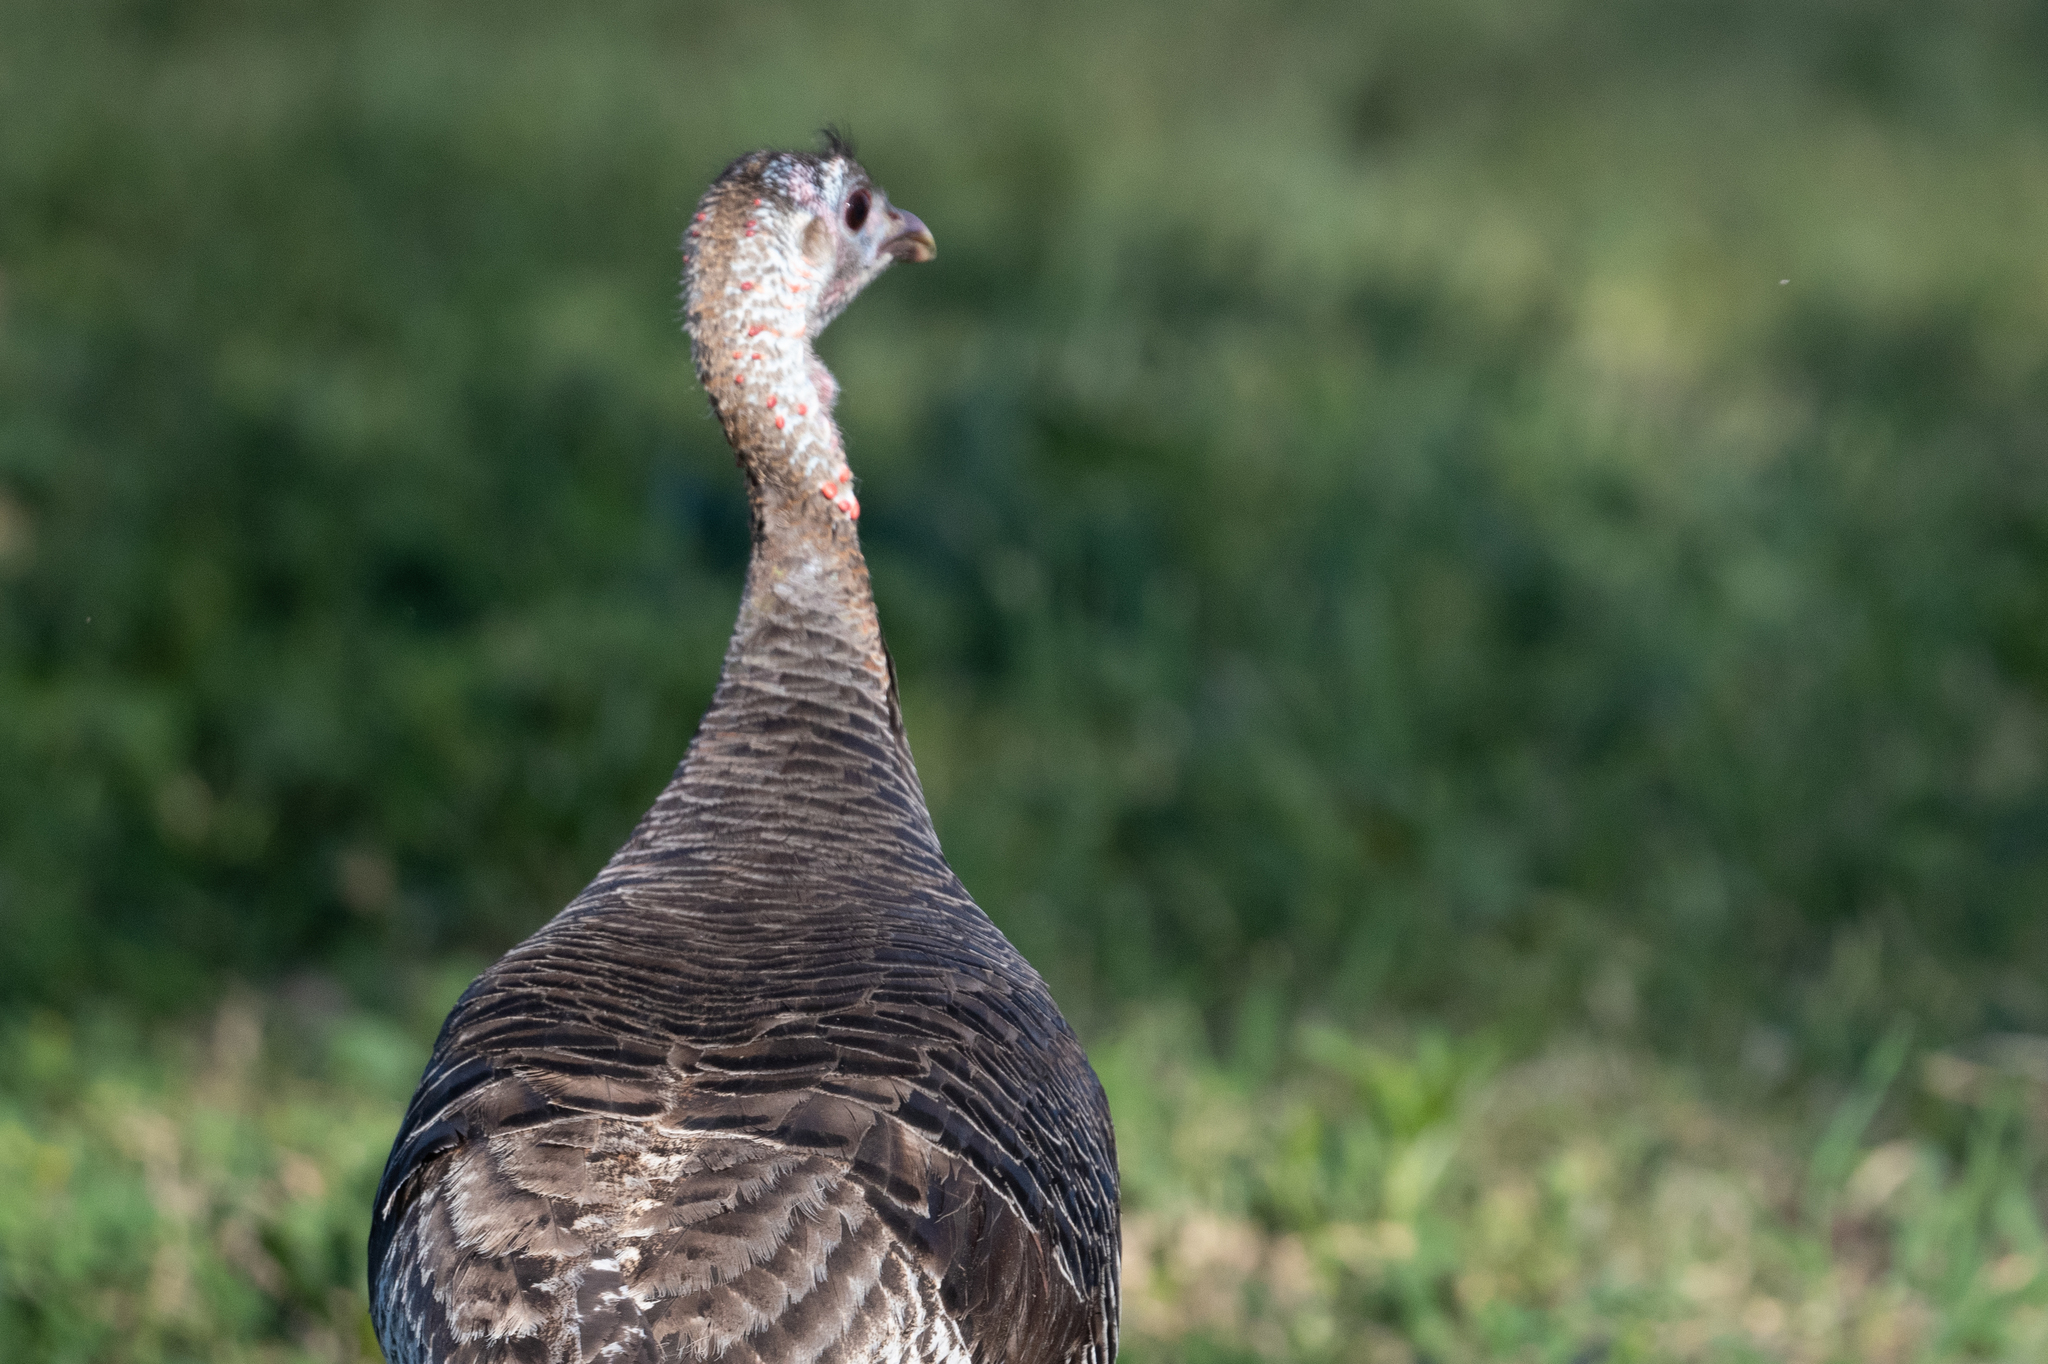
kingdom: Animalia
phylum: Chordata
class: Aves
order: Galliformes
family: Phasianidae
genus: Meleagris
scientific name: Meleagris gallopavo
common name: Wild turkey
